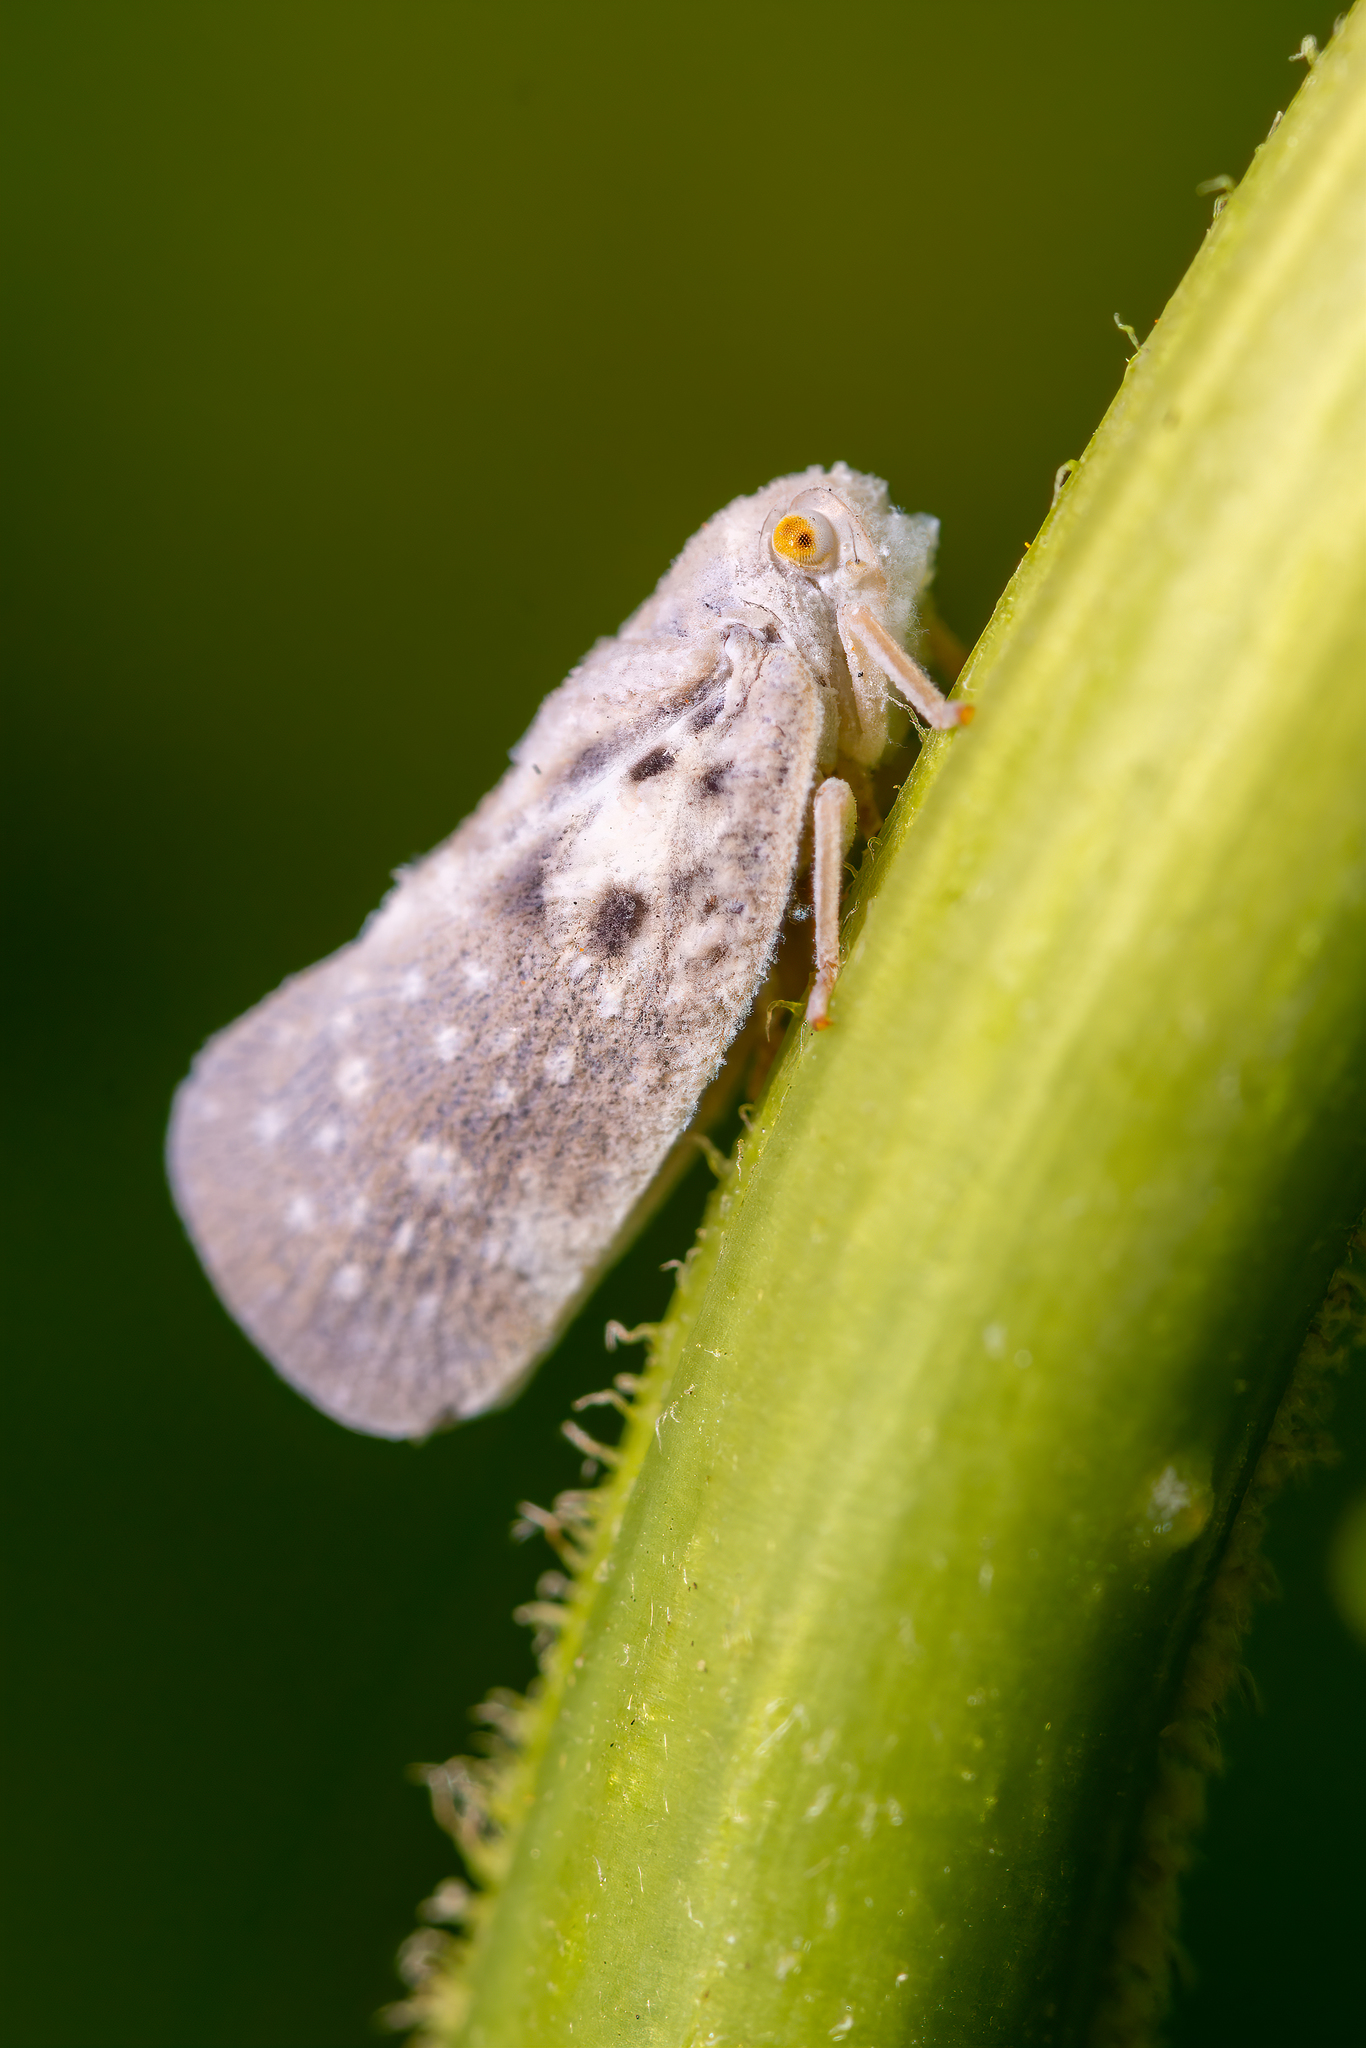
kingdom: Animalia
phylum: Arthropoda
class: Insecta
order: Hemiptera
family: Flatidae
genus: Metcalfa
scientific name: Metcalfa pruinosa
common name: Citrus flatid planthopper
